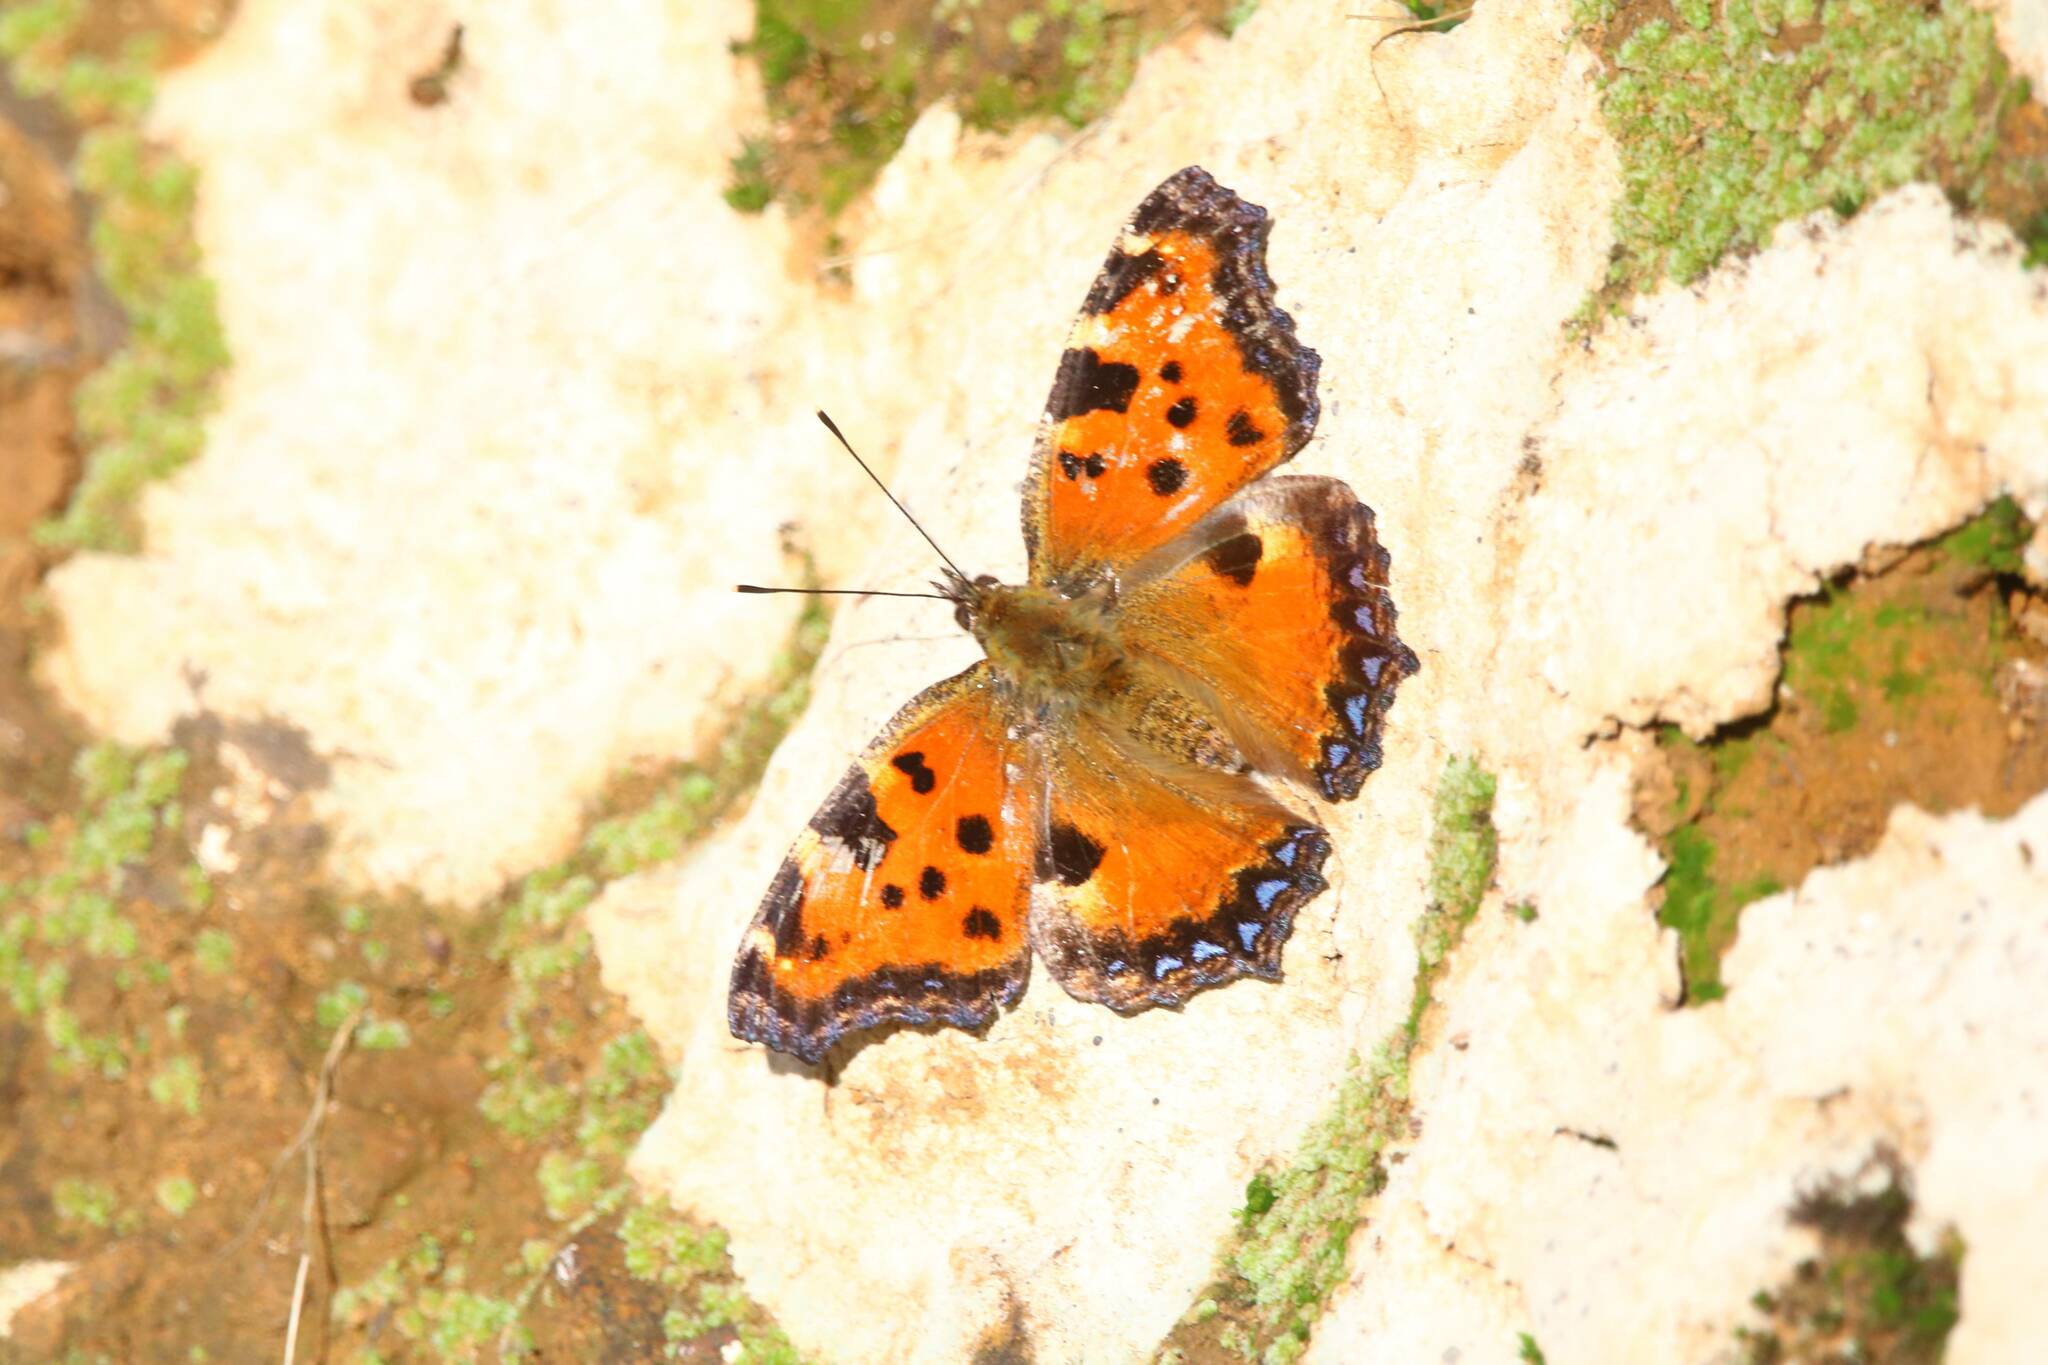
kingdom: Animalia
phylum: Arthropoda
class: Insecta
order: Lepidoptera
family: Nymphalidae
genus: Nymphalis
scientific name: Nymphalis polychloros
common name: Large tortoiseshell
